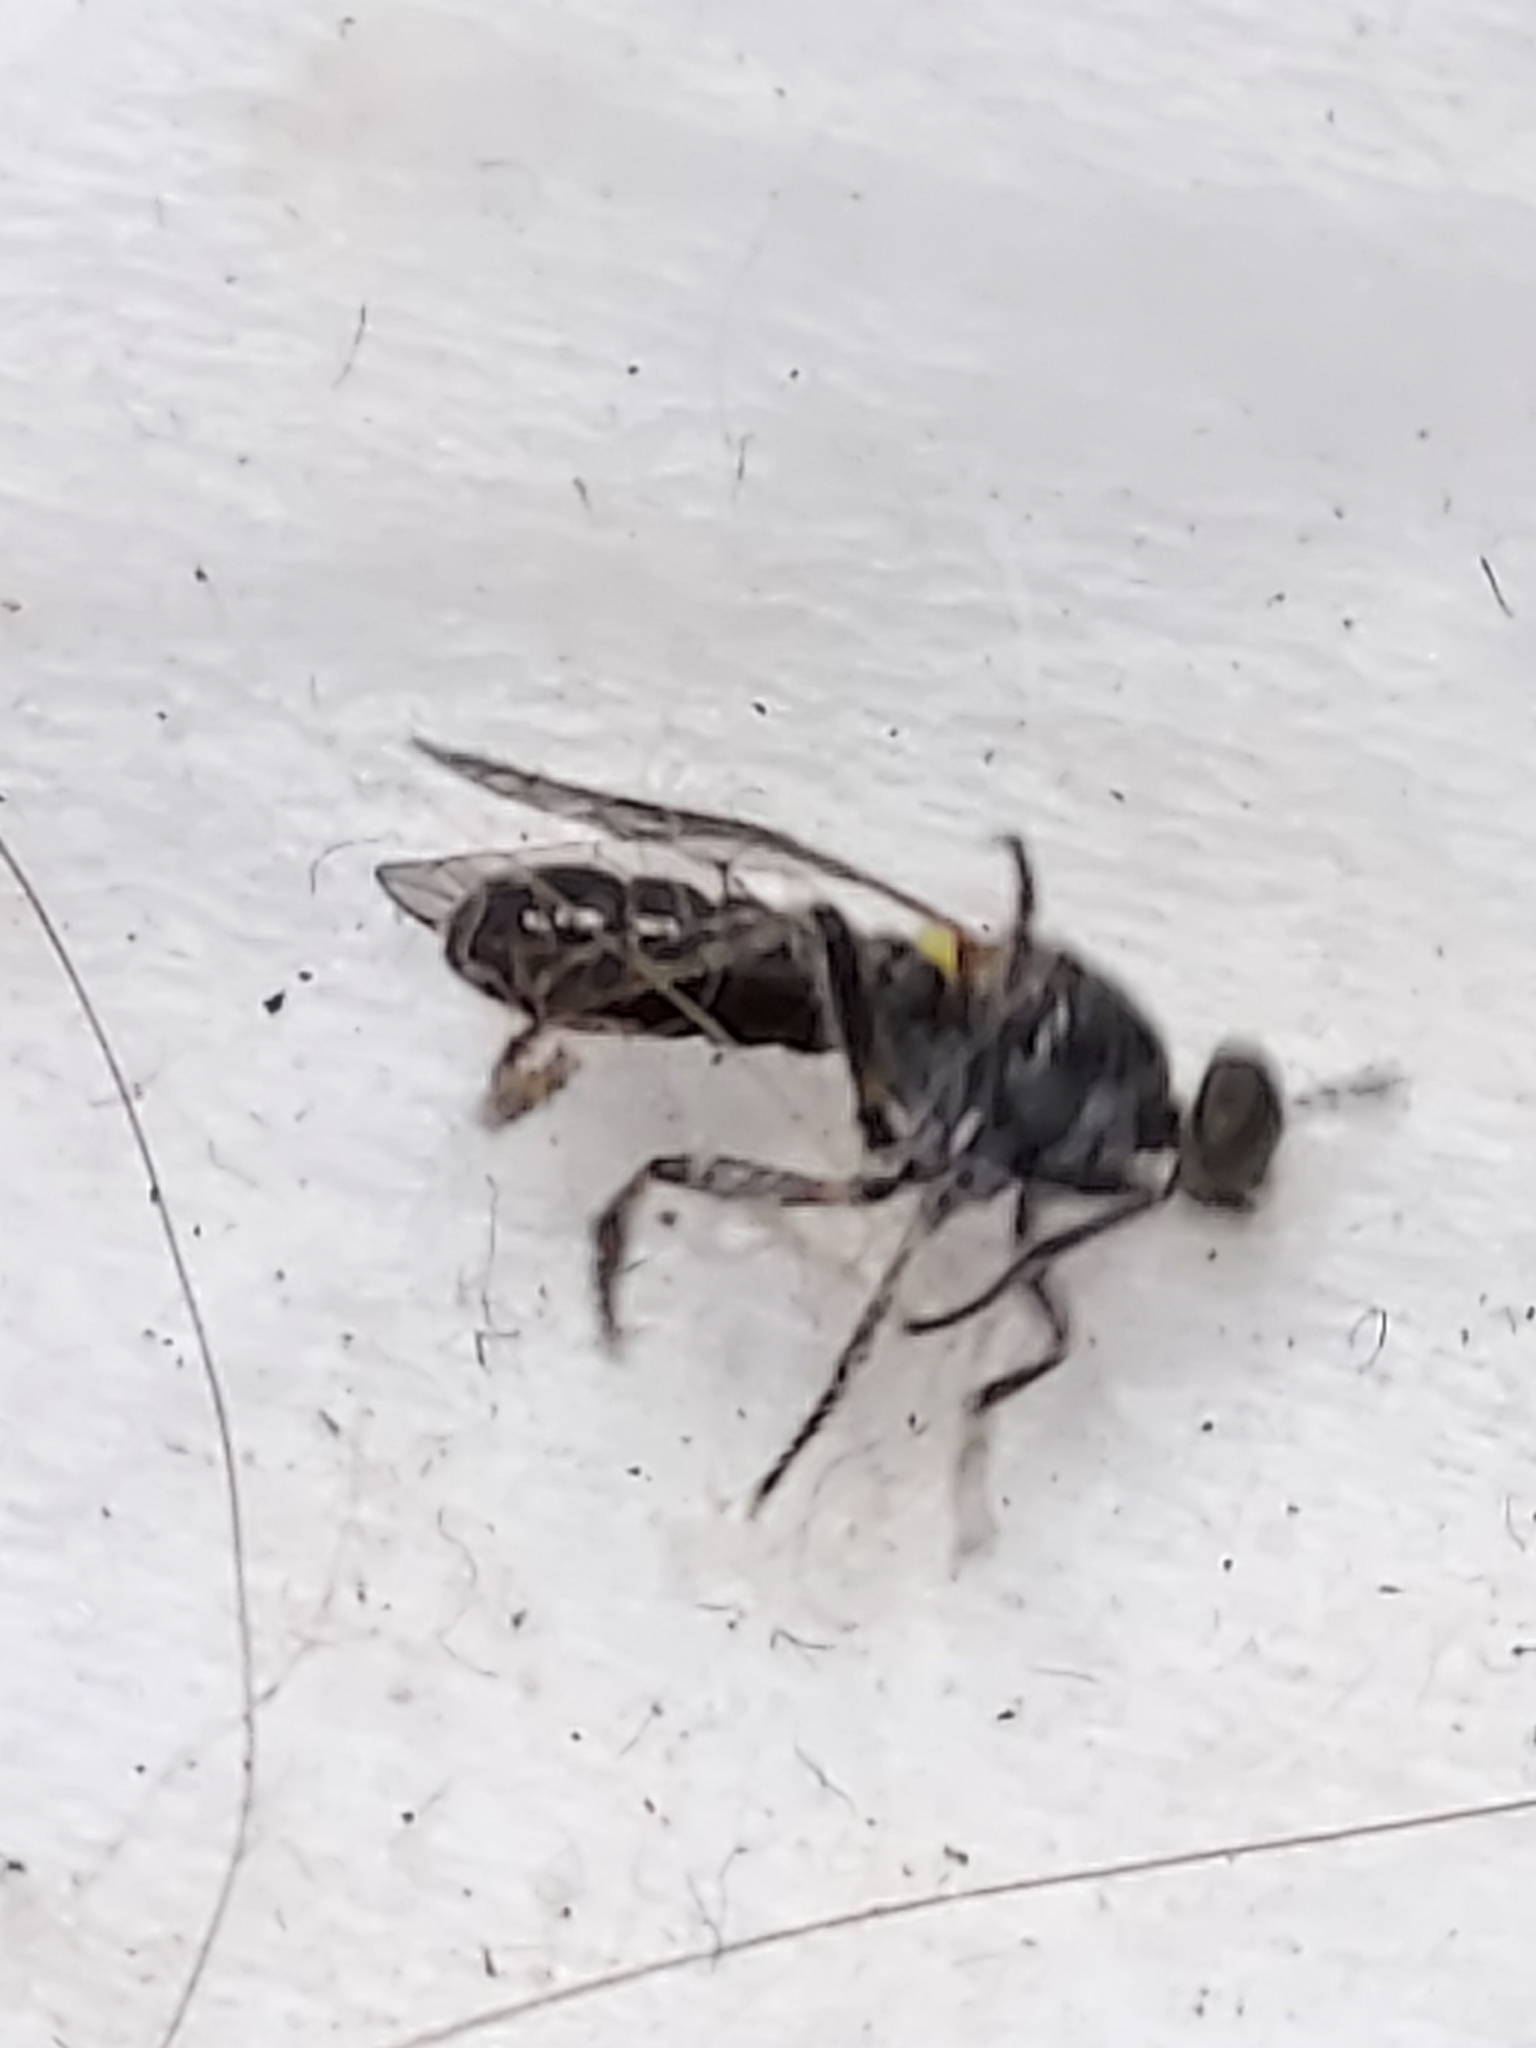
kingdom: Animalia
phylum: Arthropoda
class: Insecta
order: Diptera
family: Asilidae
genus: Atomosia
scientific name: Atomosia puella
